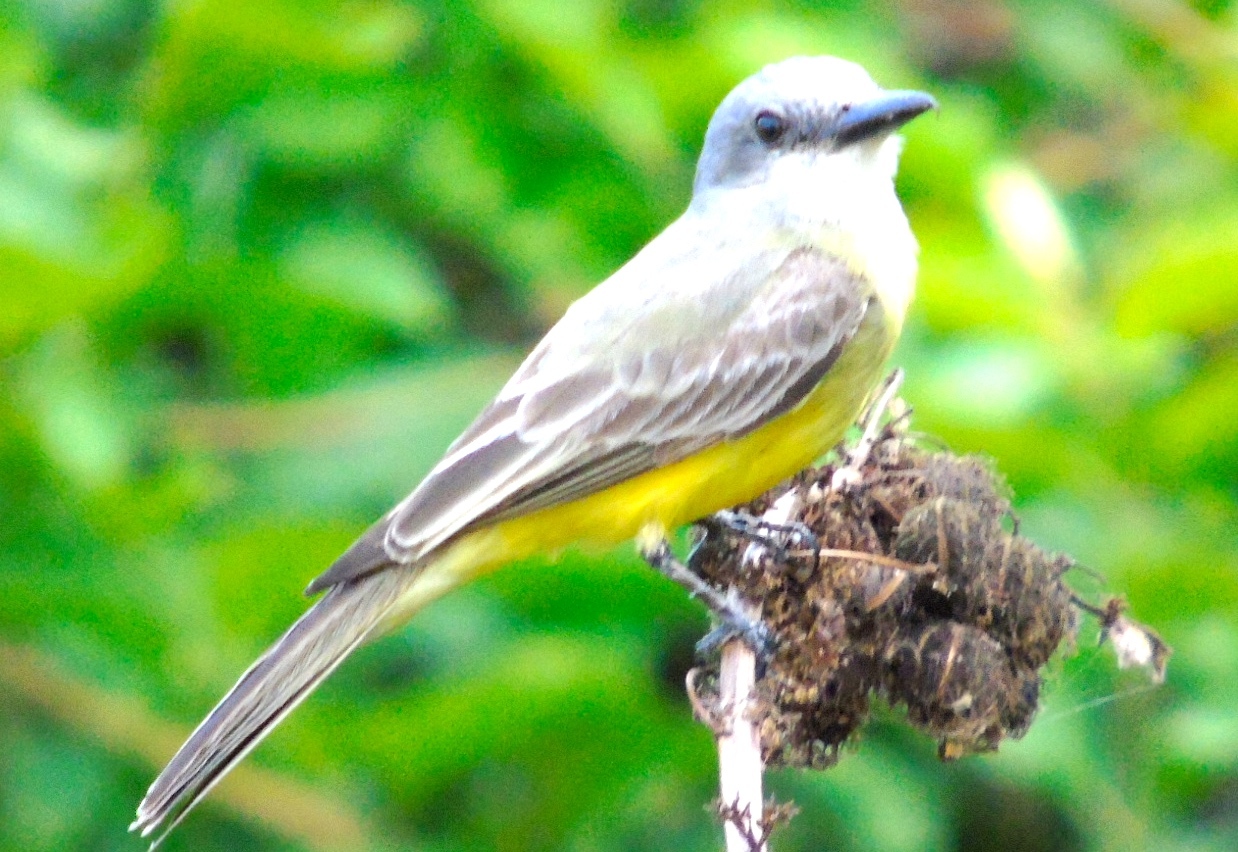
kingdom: Animalia
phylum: Chordata
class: Aves
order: Passeriformes
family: Tyrannidae
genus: Tyrannus
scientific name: Tyrannus melancholicus
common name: Tropical kingbird
